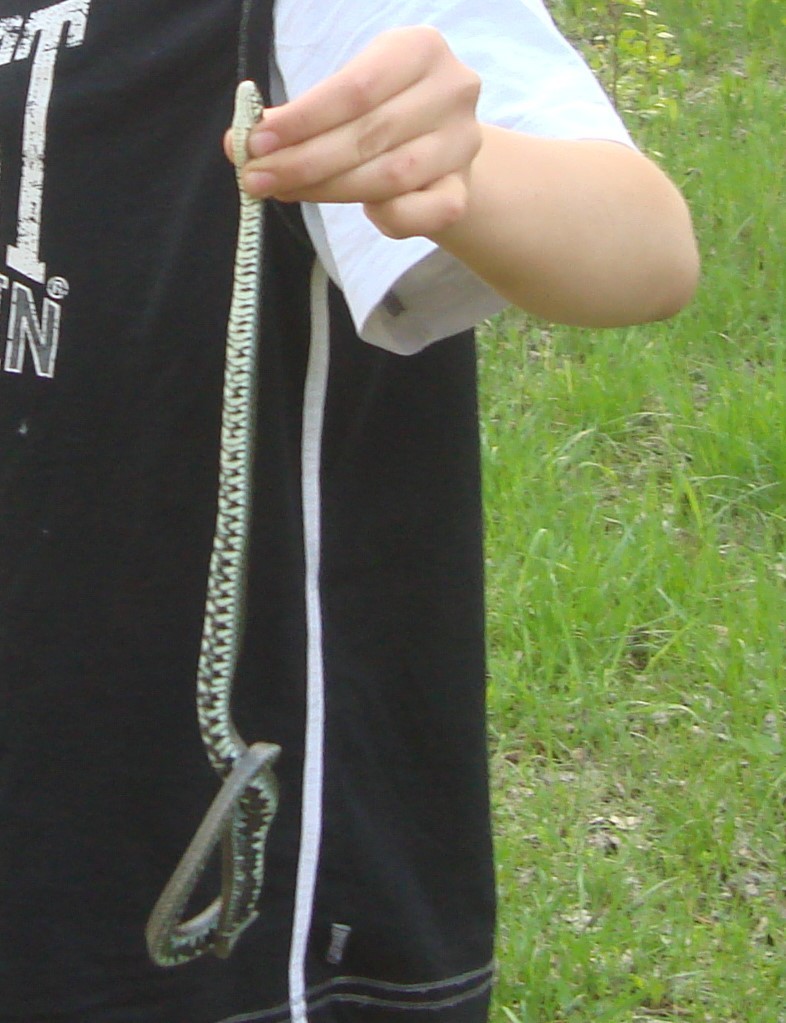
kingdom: Animalia
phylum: Chordata
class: Squamata
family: Colubridae
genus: Natrix
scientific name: Natrix natrix
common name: Grass snake
